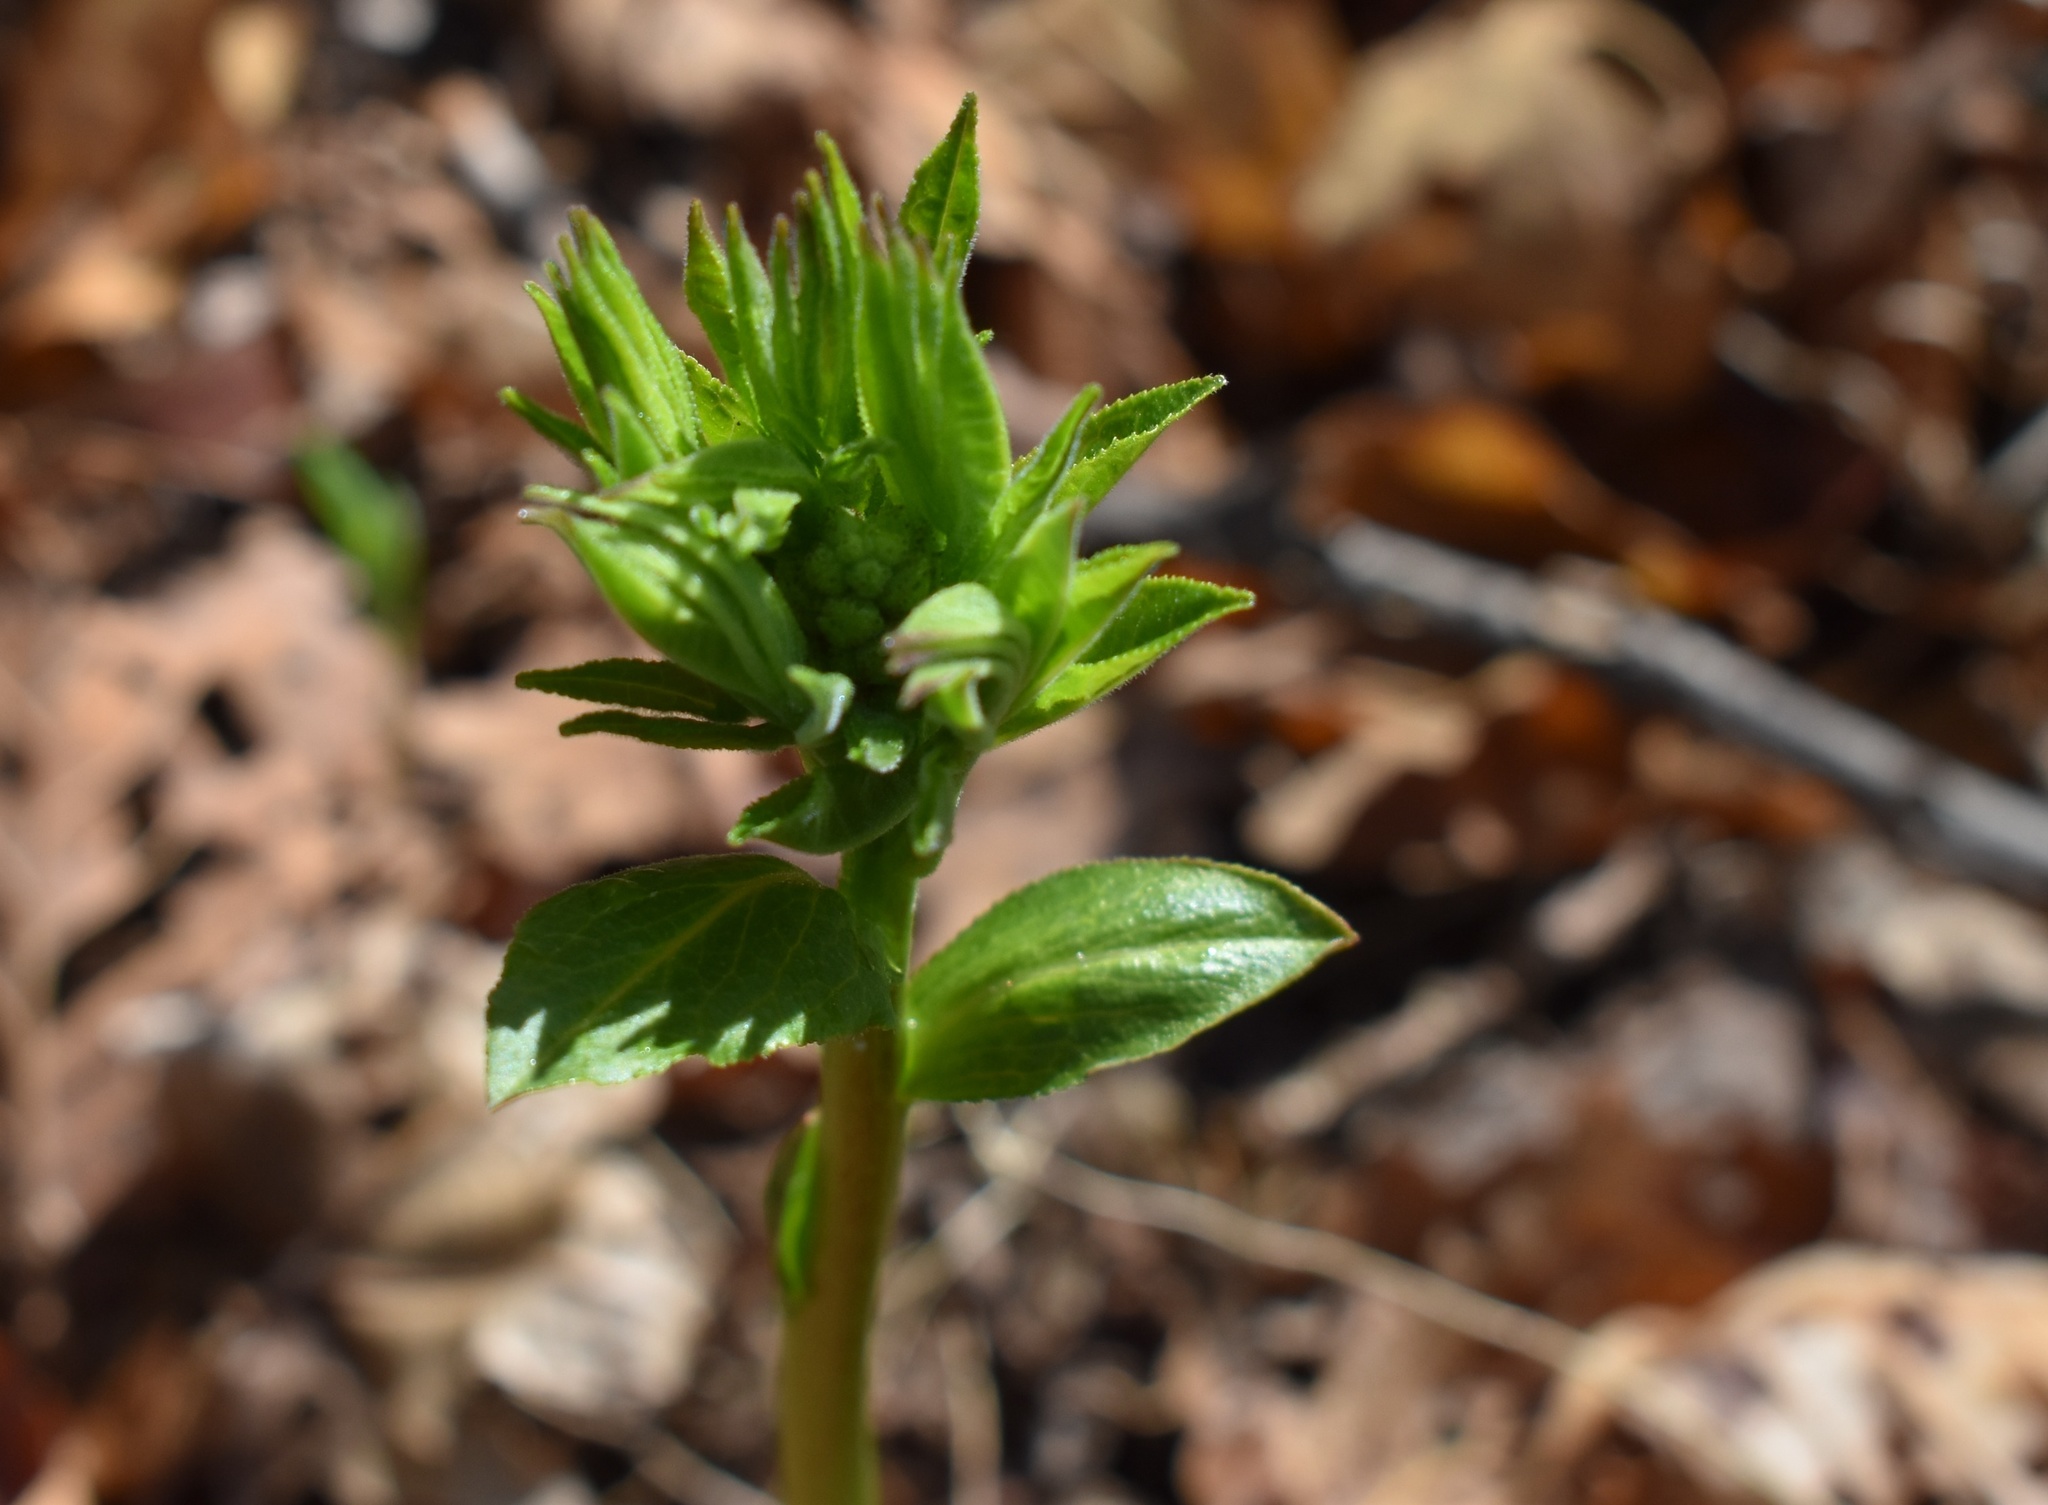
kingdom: Plantae
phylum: Tracheophyta
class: Magnoliopsida
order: Sapindales
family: Rutaceae
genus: Dictamnus
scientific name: Dictamnus dasycarpus
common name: Dense-fruit dittany
